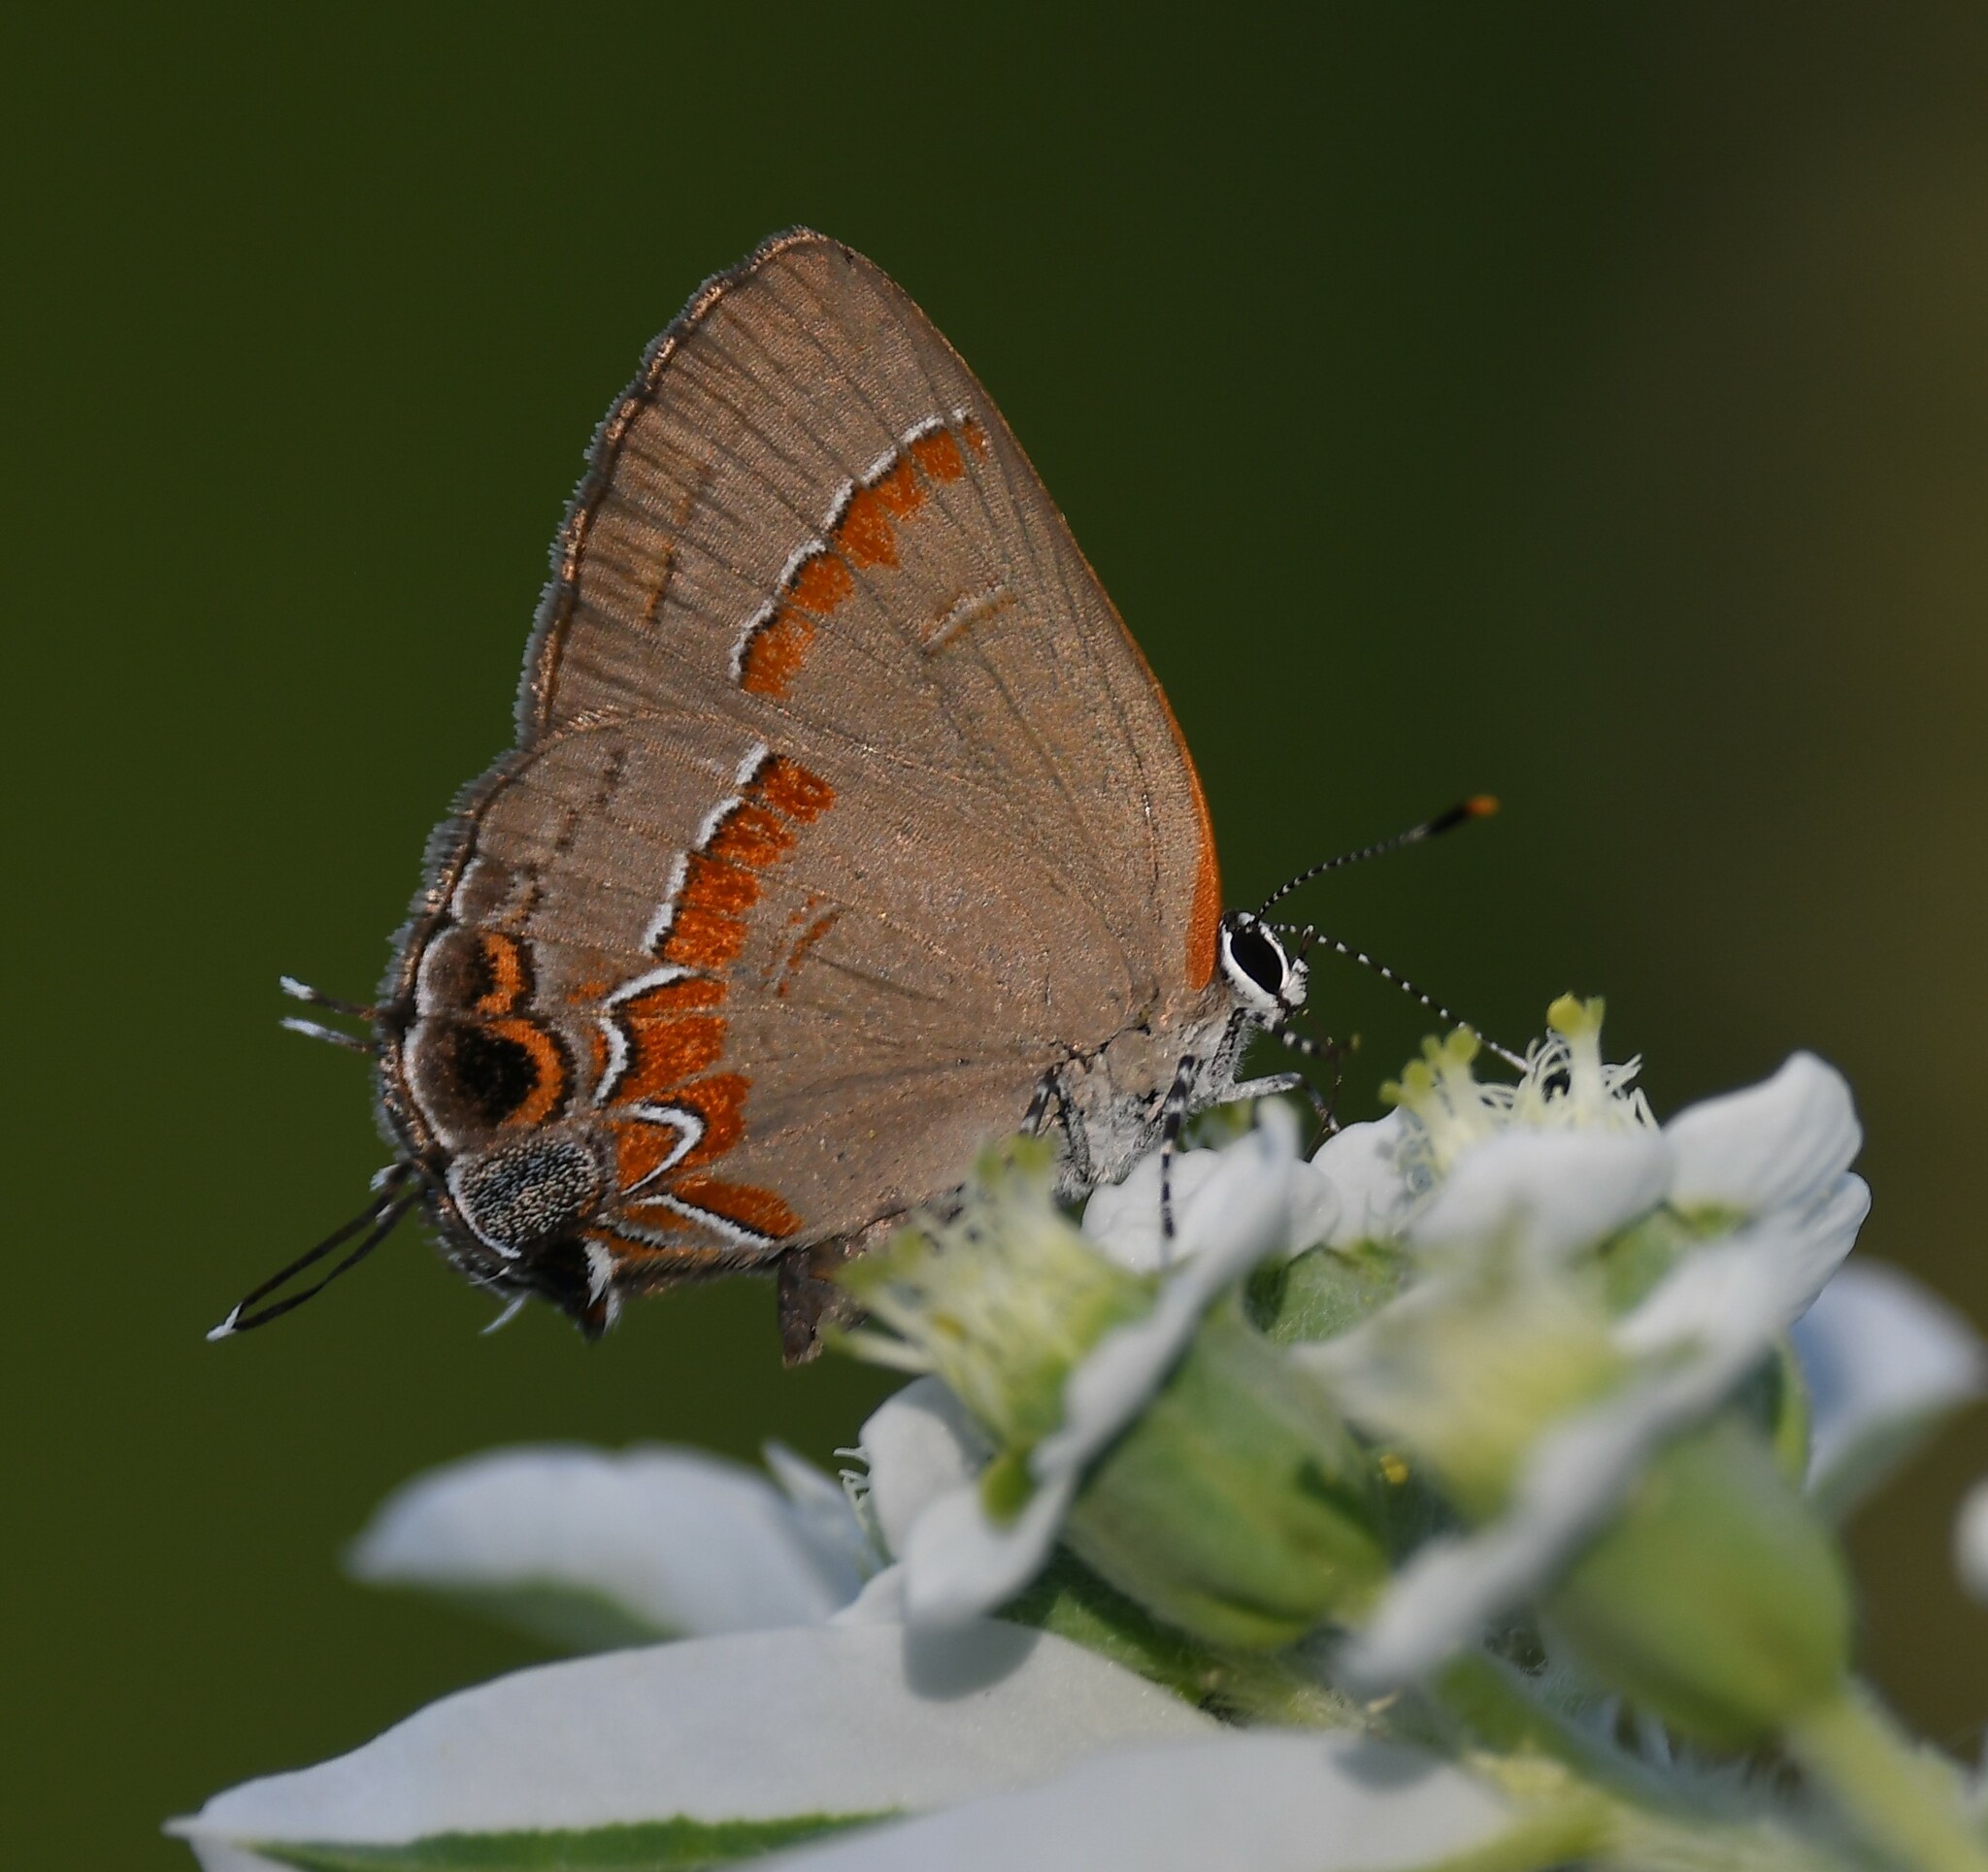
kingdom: Animalia
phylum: Arthropoda
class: Insecta
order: Lepidoptera
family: Lycaenidae
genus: Calycopis
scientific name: Calycopis cecrops
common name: Red-banded hairstreak
